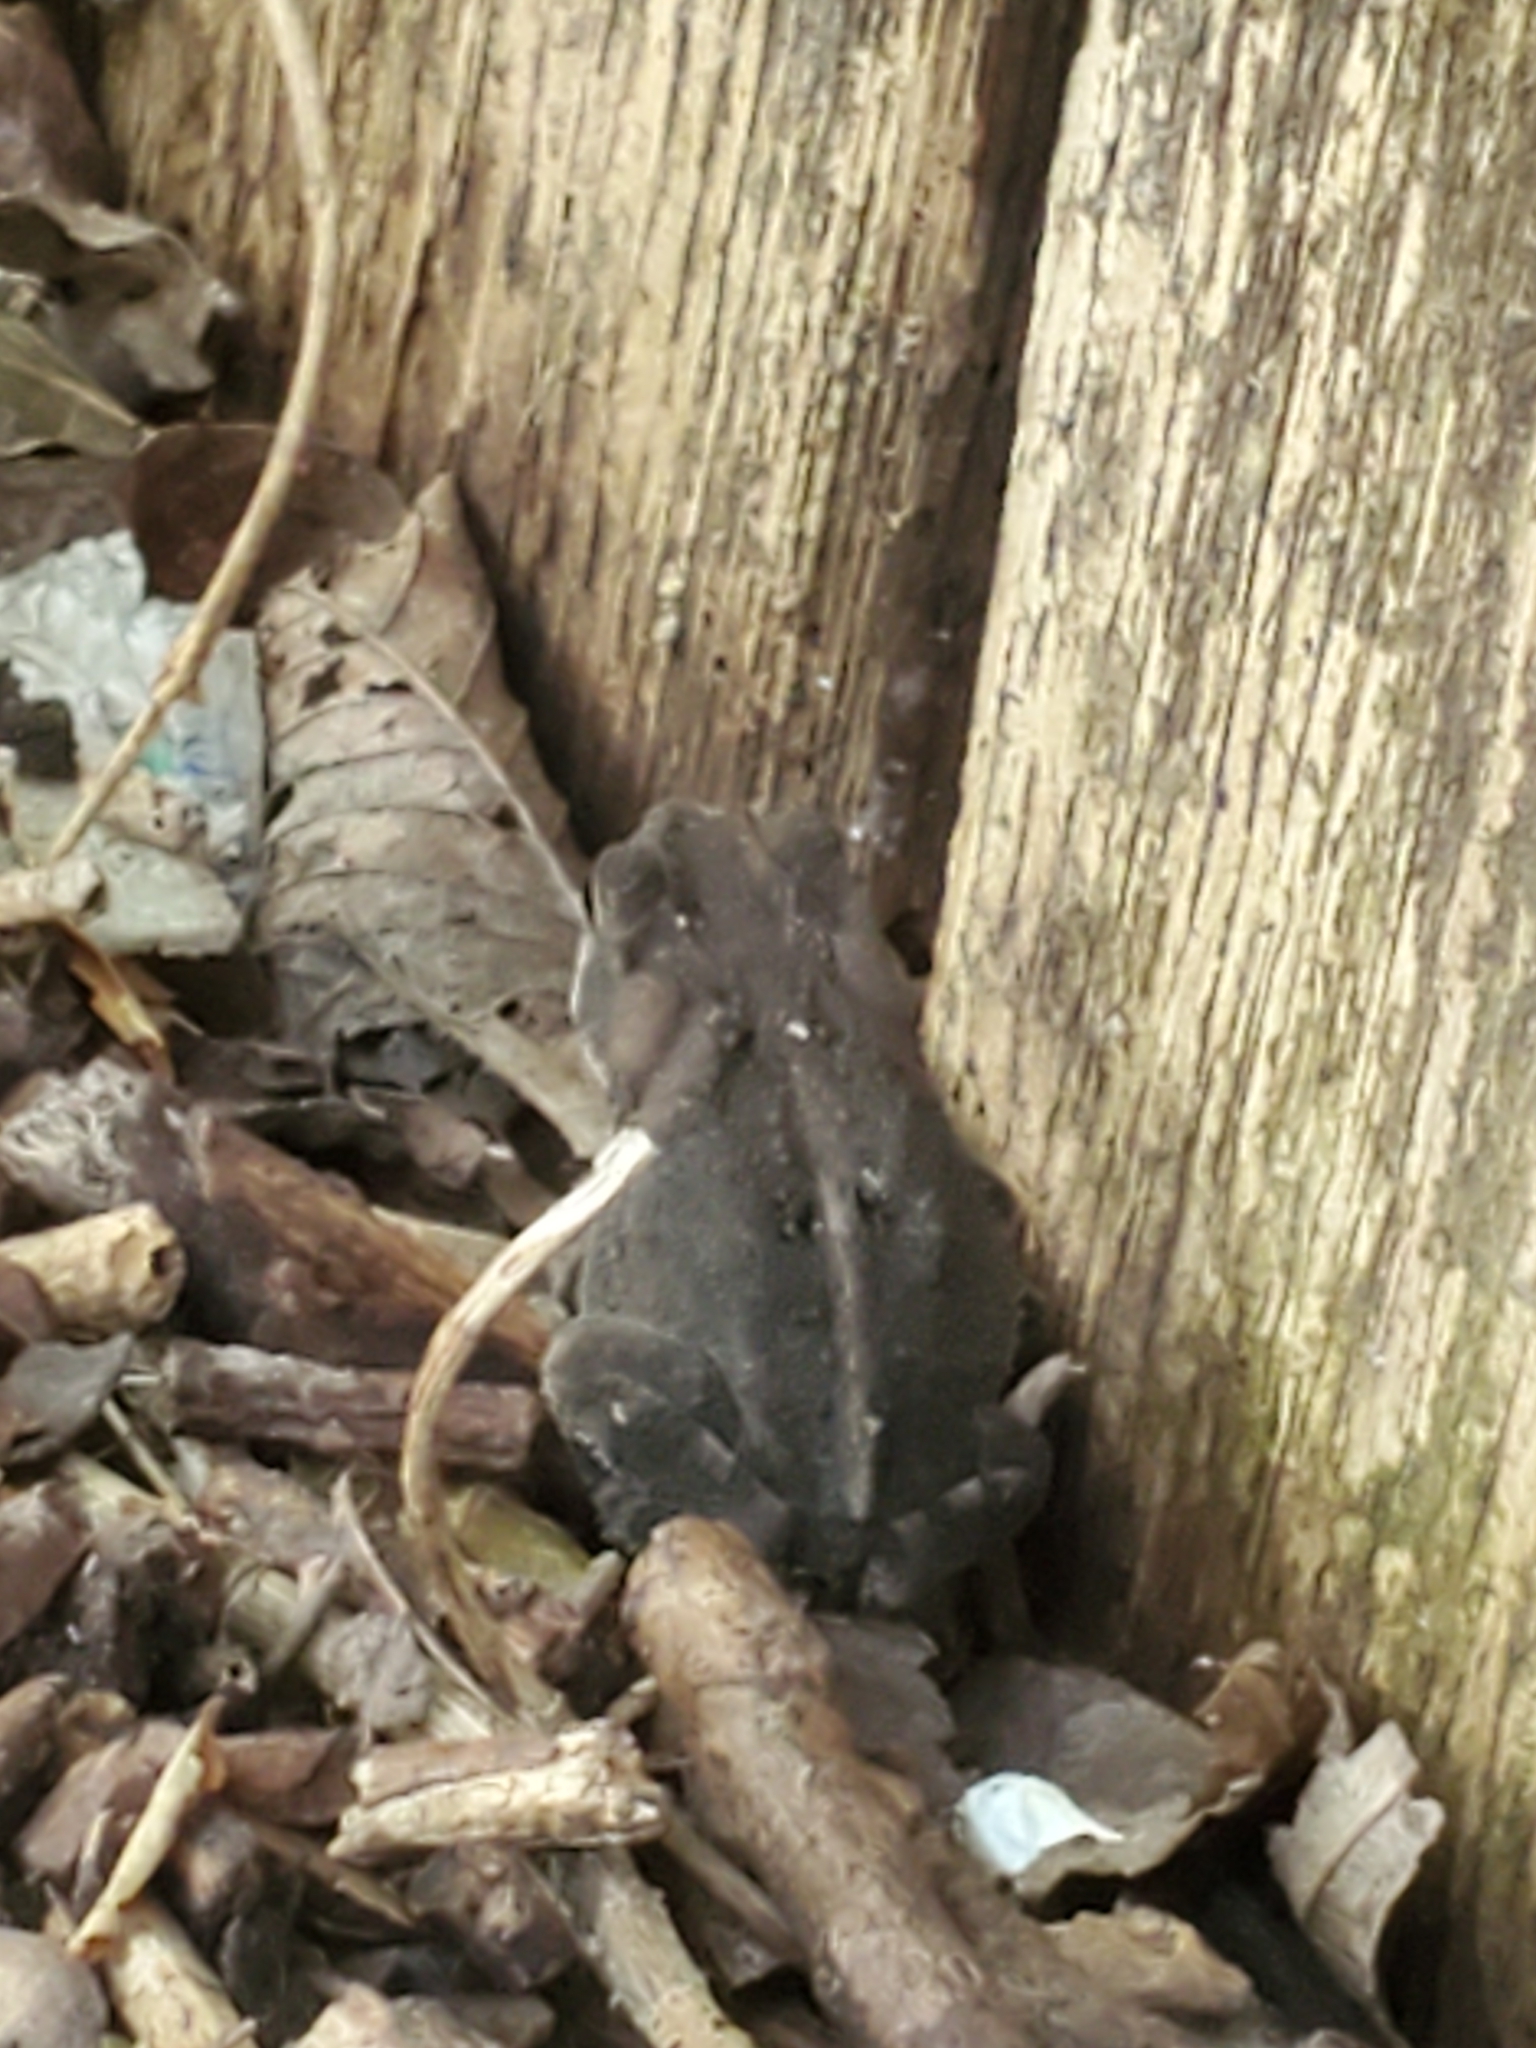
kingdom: Animalia
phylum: Chordata
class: Amphibia
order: Anura
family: Bufonidae
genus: Incilius
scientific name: Incilius nebulifer
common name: Gulf coast toad
